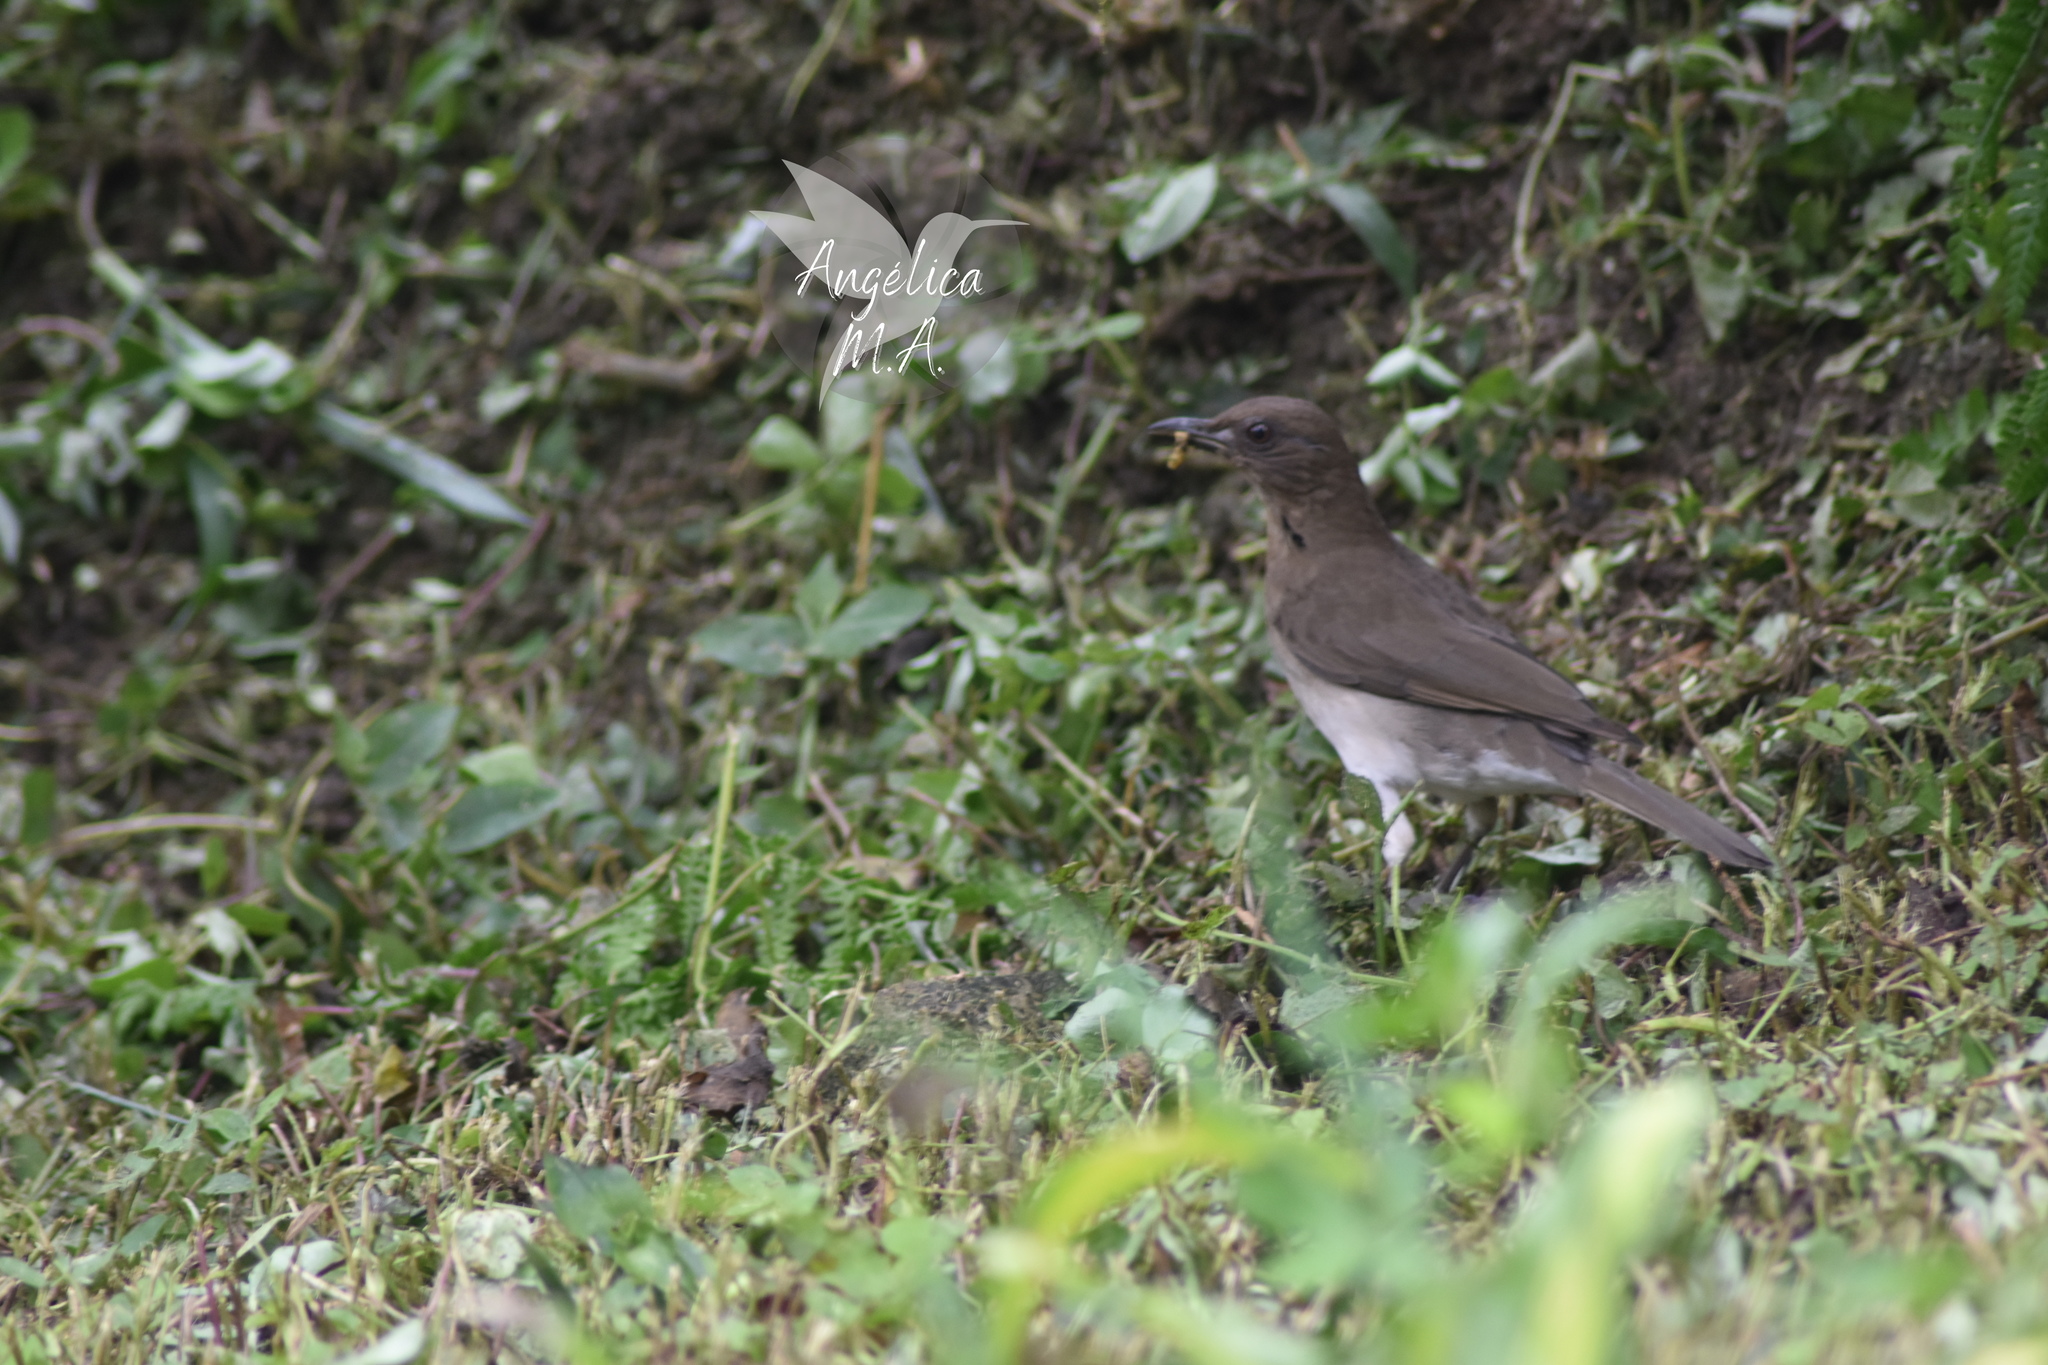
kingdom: Animalia
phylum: Chordata
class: Aves
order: Passeriformes
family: Turdidae
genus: Turdus
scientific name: Turdus ignobilis
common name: Black-billed thrush
